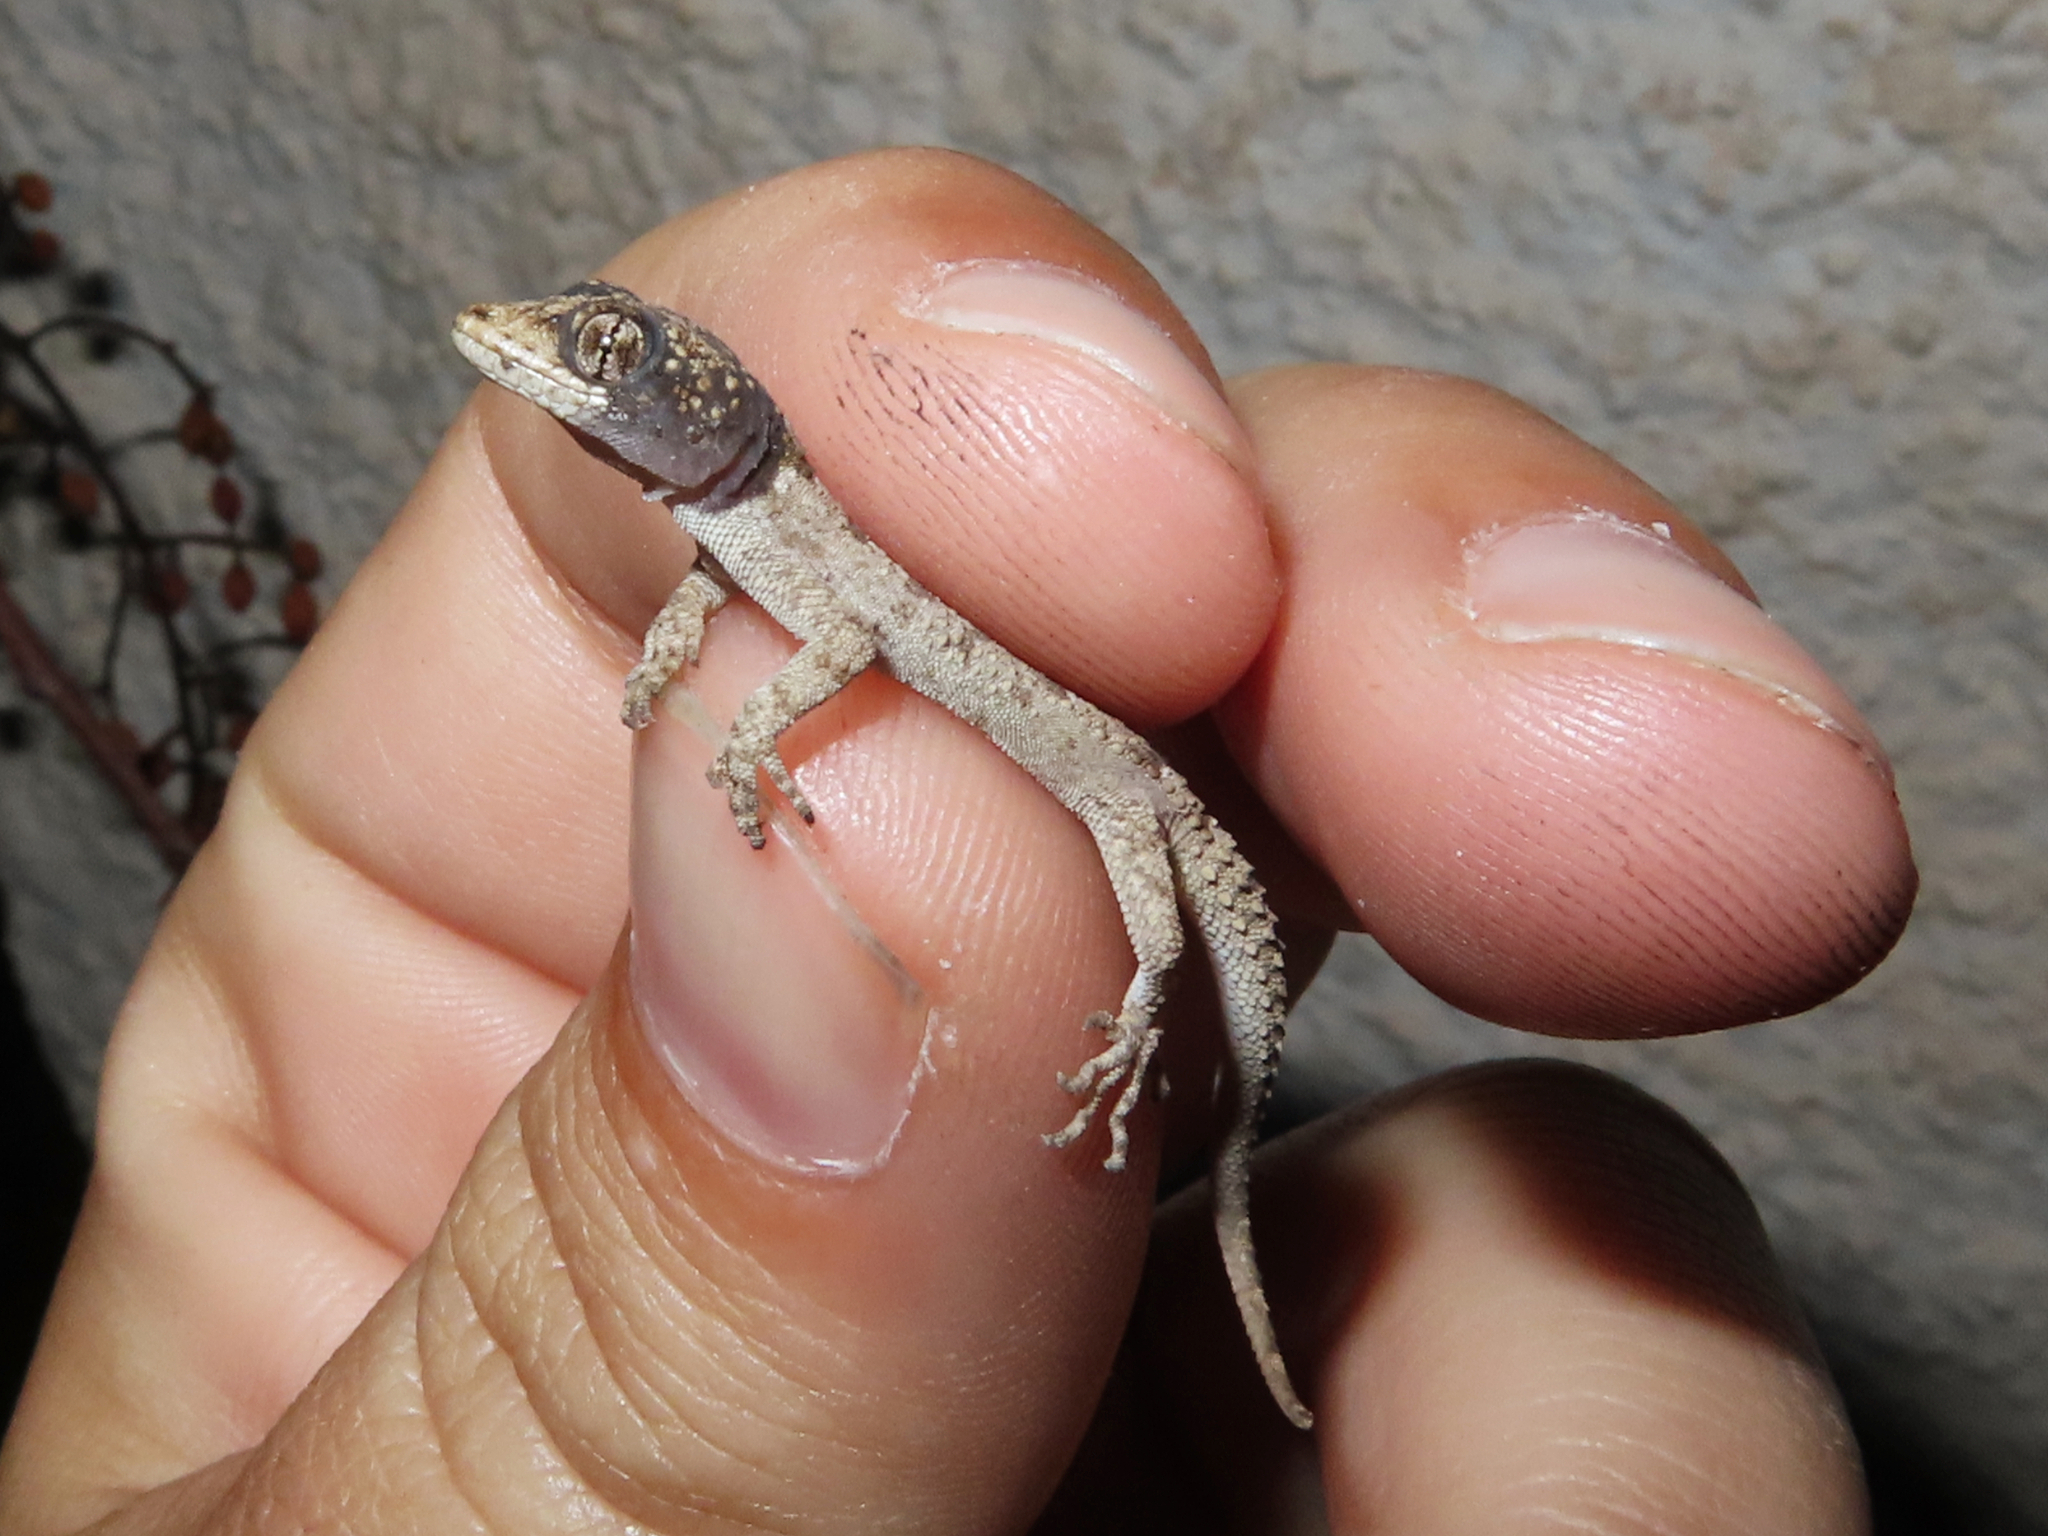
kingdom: Animalia
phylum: Chordata
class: Squamata
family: Gekkonidae
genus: Mediodactylus
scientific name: Mediodactylus kotschyi
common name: Kotschy's gecko
